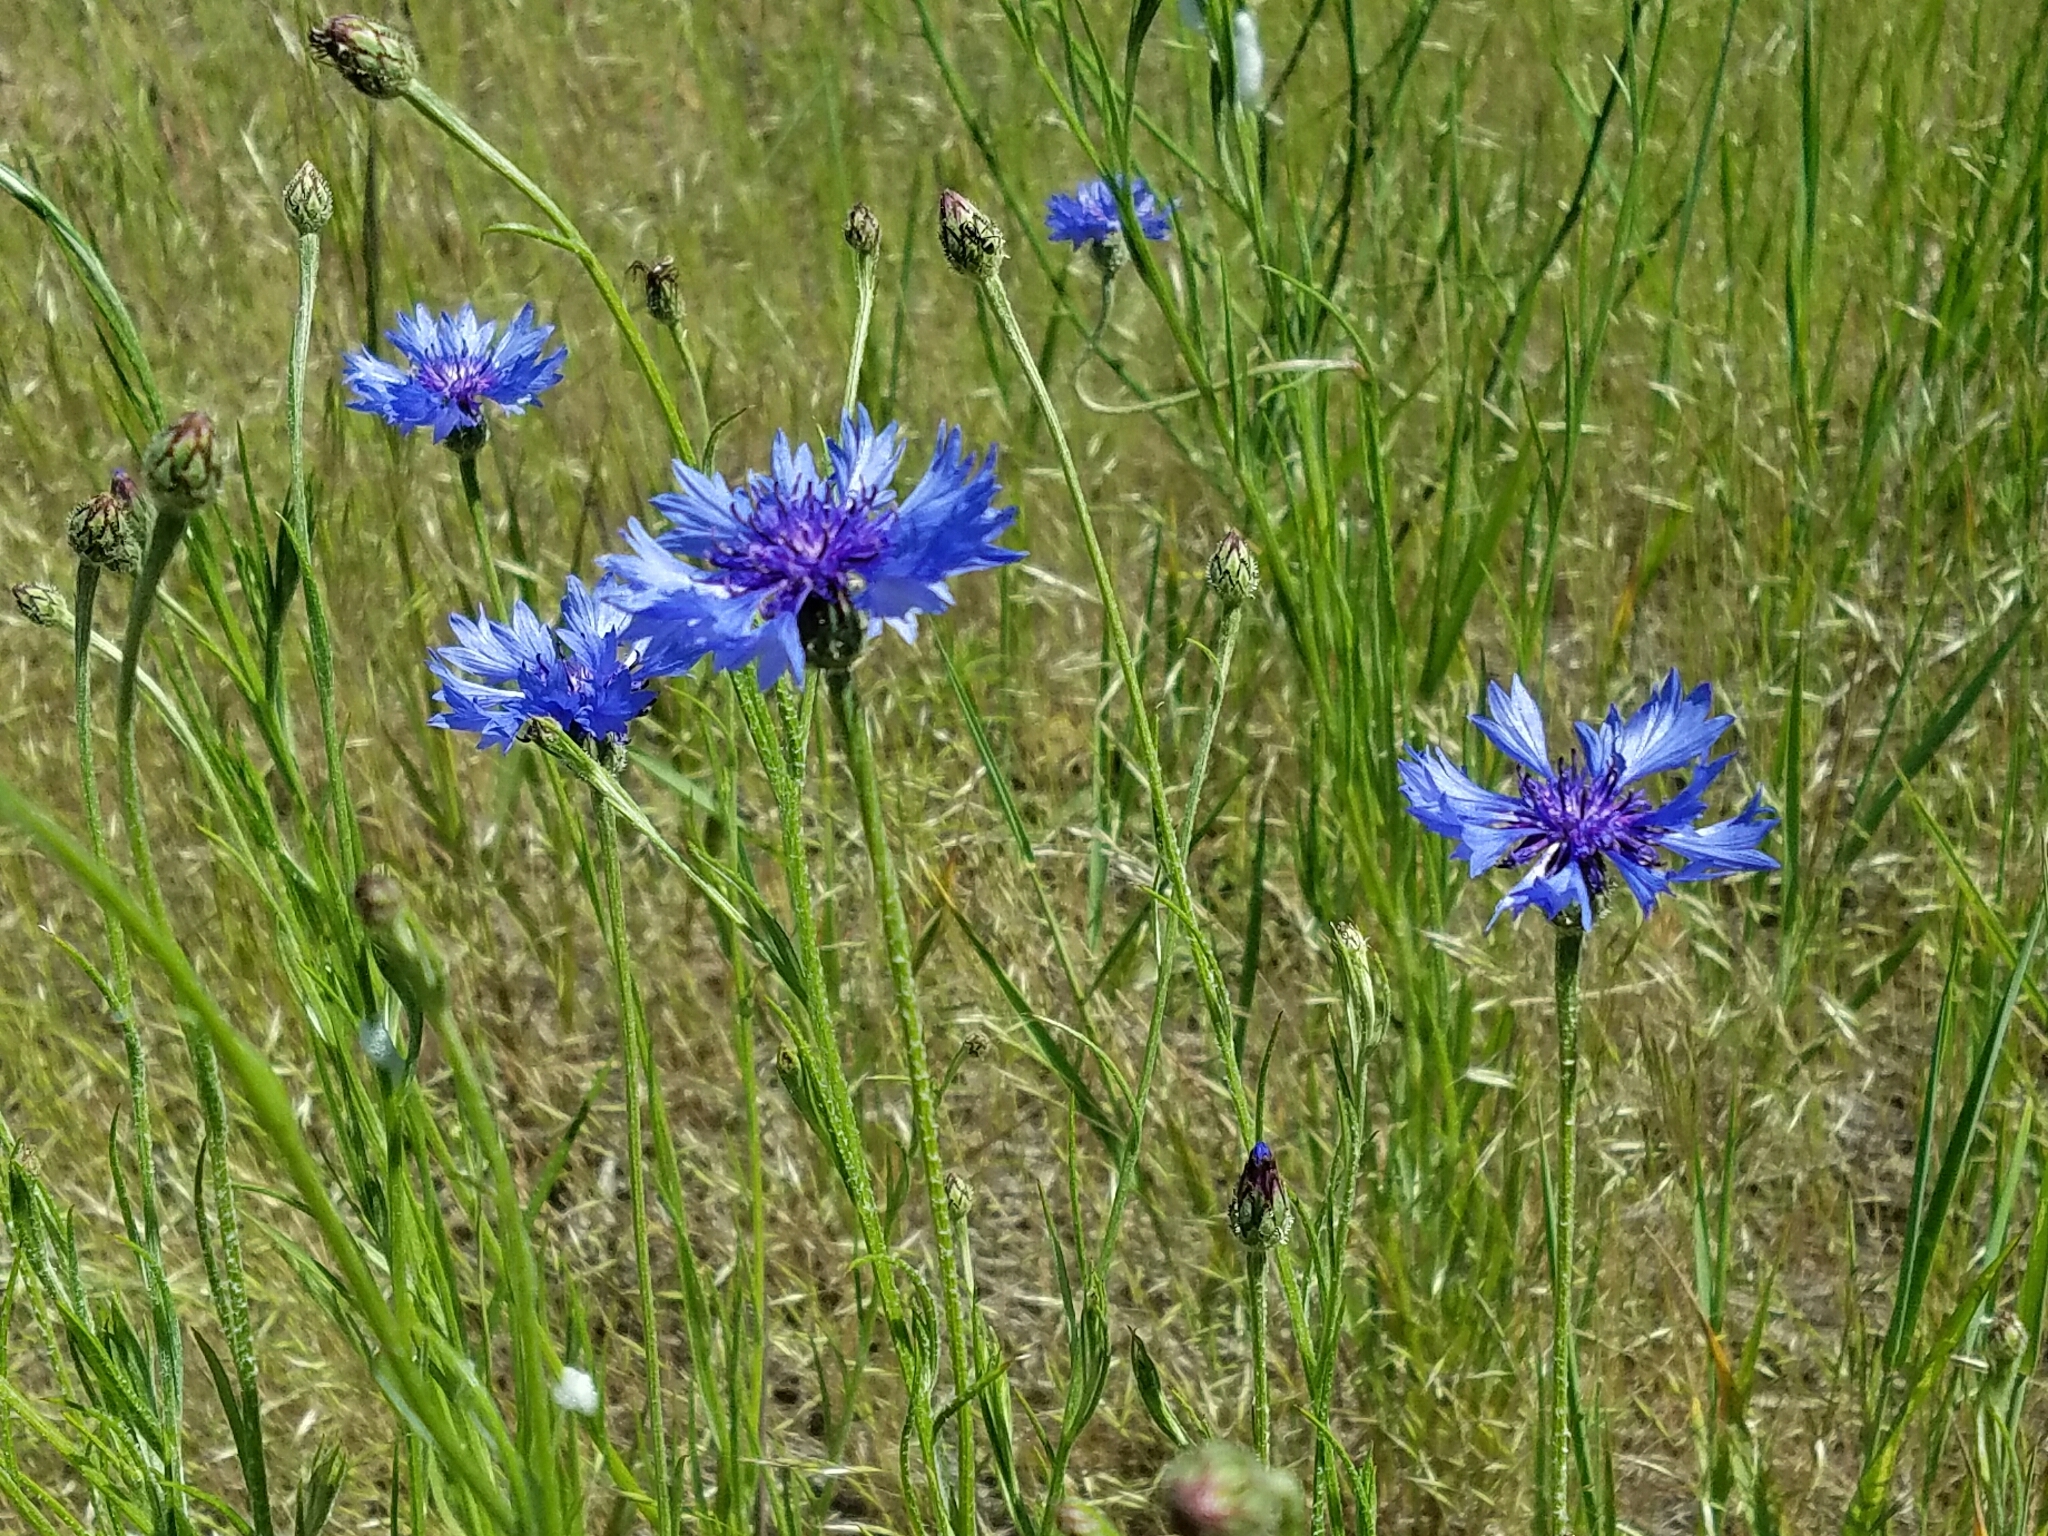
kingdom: Plantae
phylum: Tracheophyta
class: Magnoliopsida
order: Asterales
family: Asteraceae
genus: Centaurea
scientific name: Centaurea cyanus
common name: Cornflower
